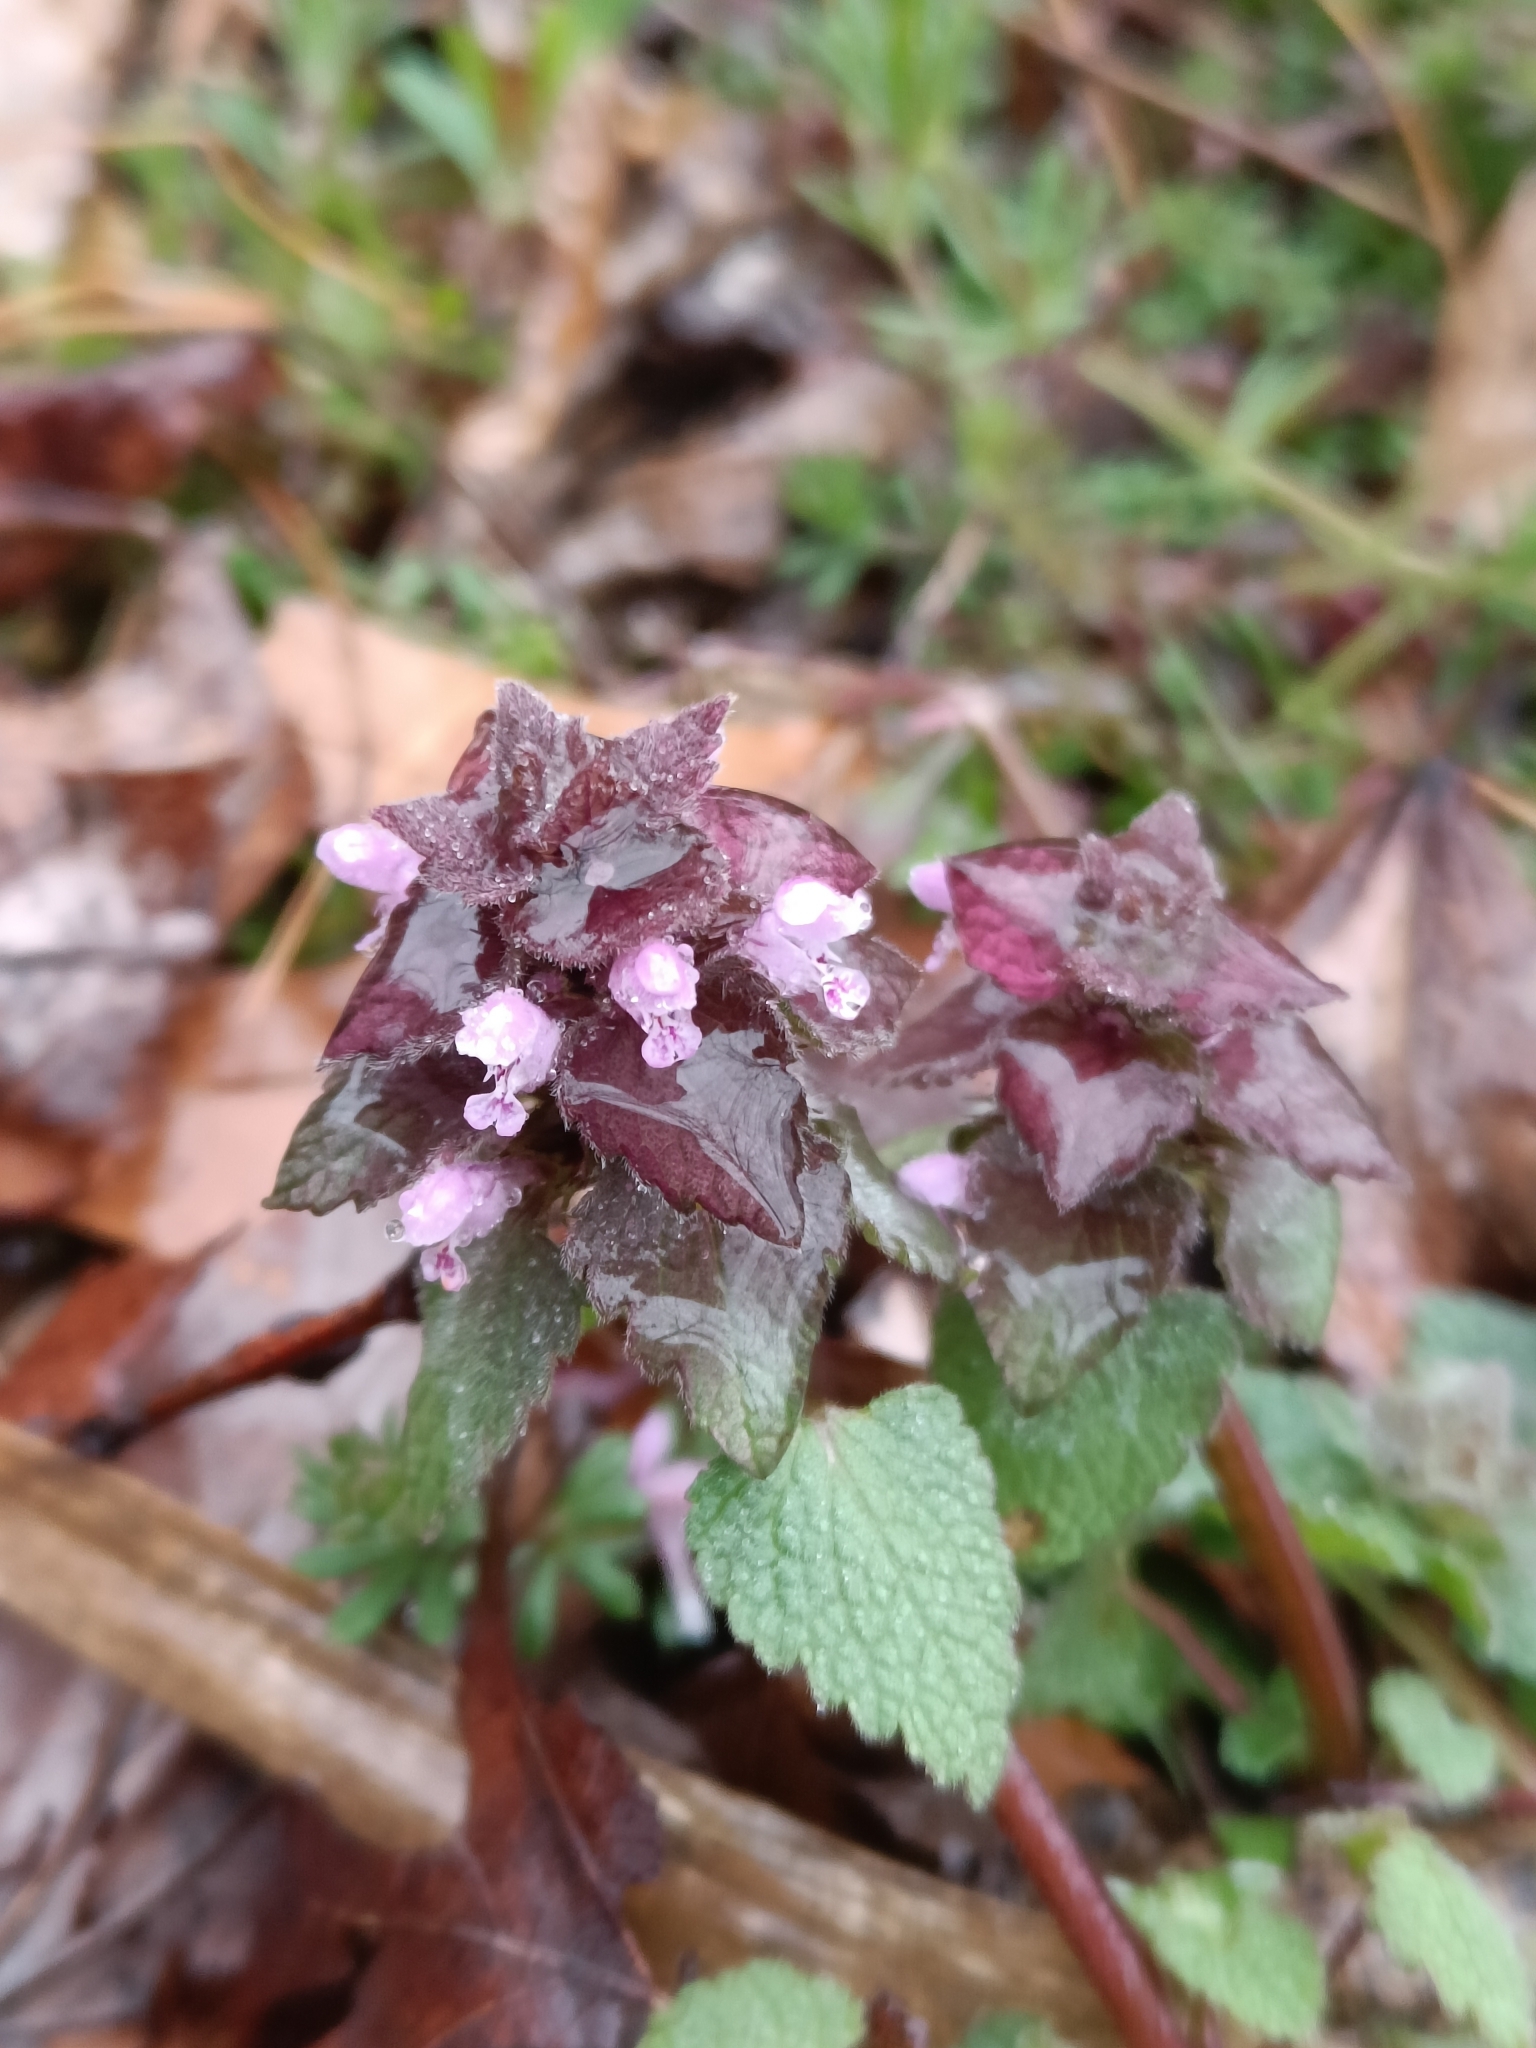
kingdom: Plantae
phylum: Tracheophyta
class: Magnoliopsida
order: Lamiales
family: Lamiaceae
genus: Lamium
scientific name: Lamium purpureum
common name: Red dead-nettle
